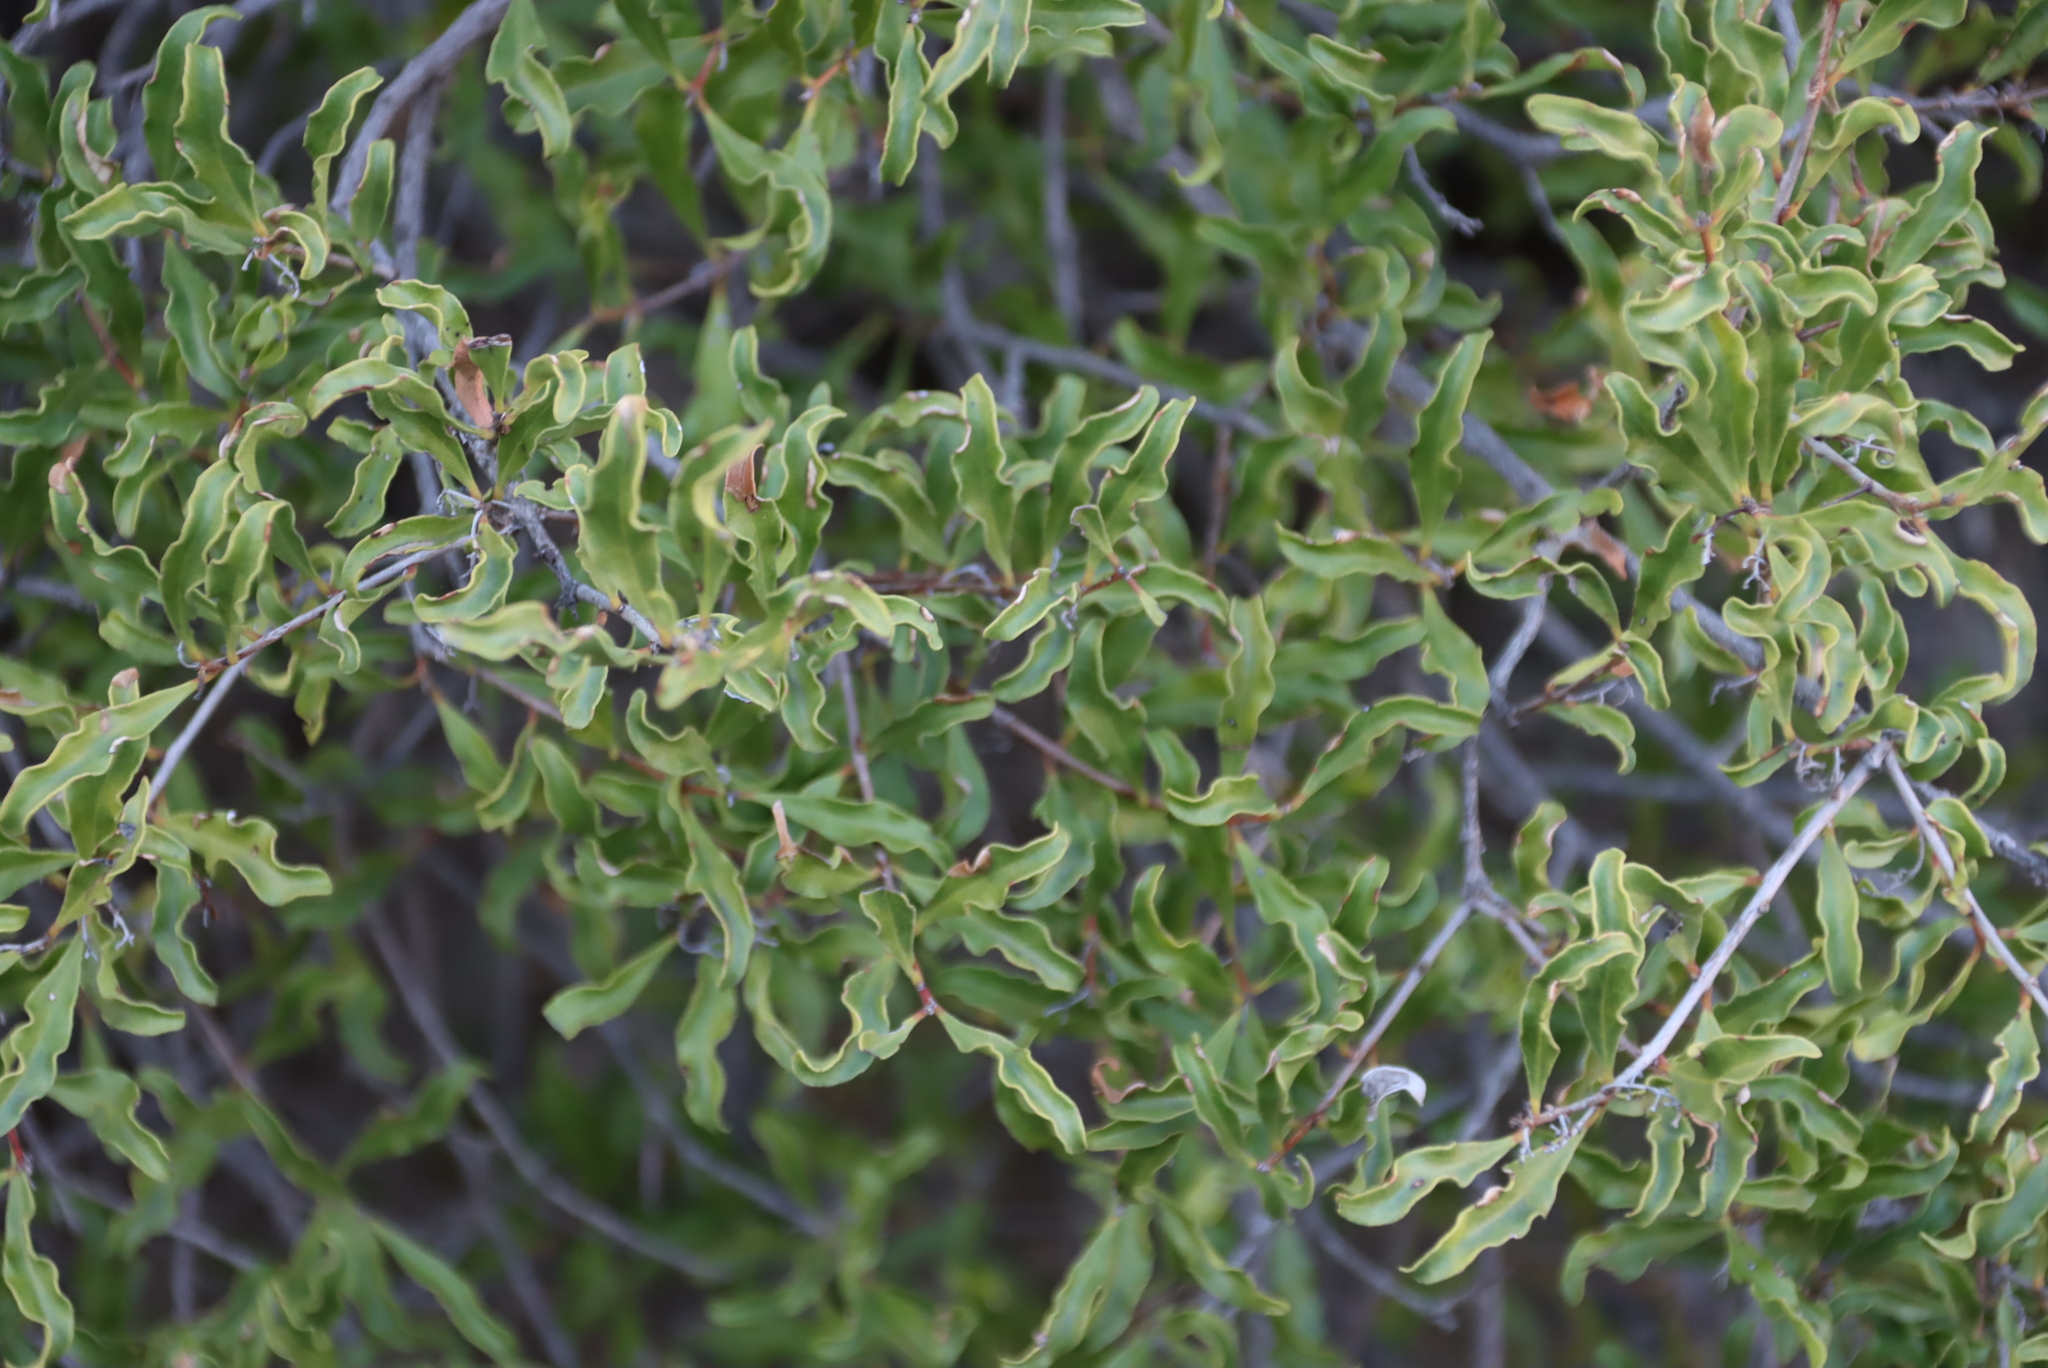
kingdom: Plantae
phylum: Tracheophyta
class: Magnoliopsida
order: Ericales
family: Ebenaceae
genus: Euclea
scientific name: Euclea undulata
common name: Small-leaved guarri
